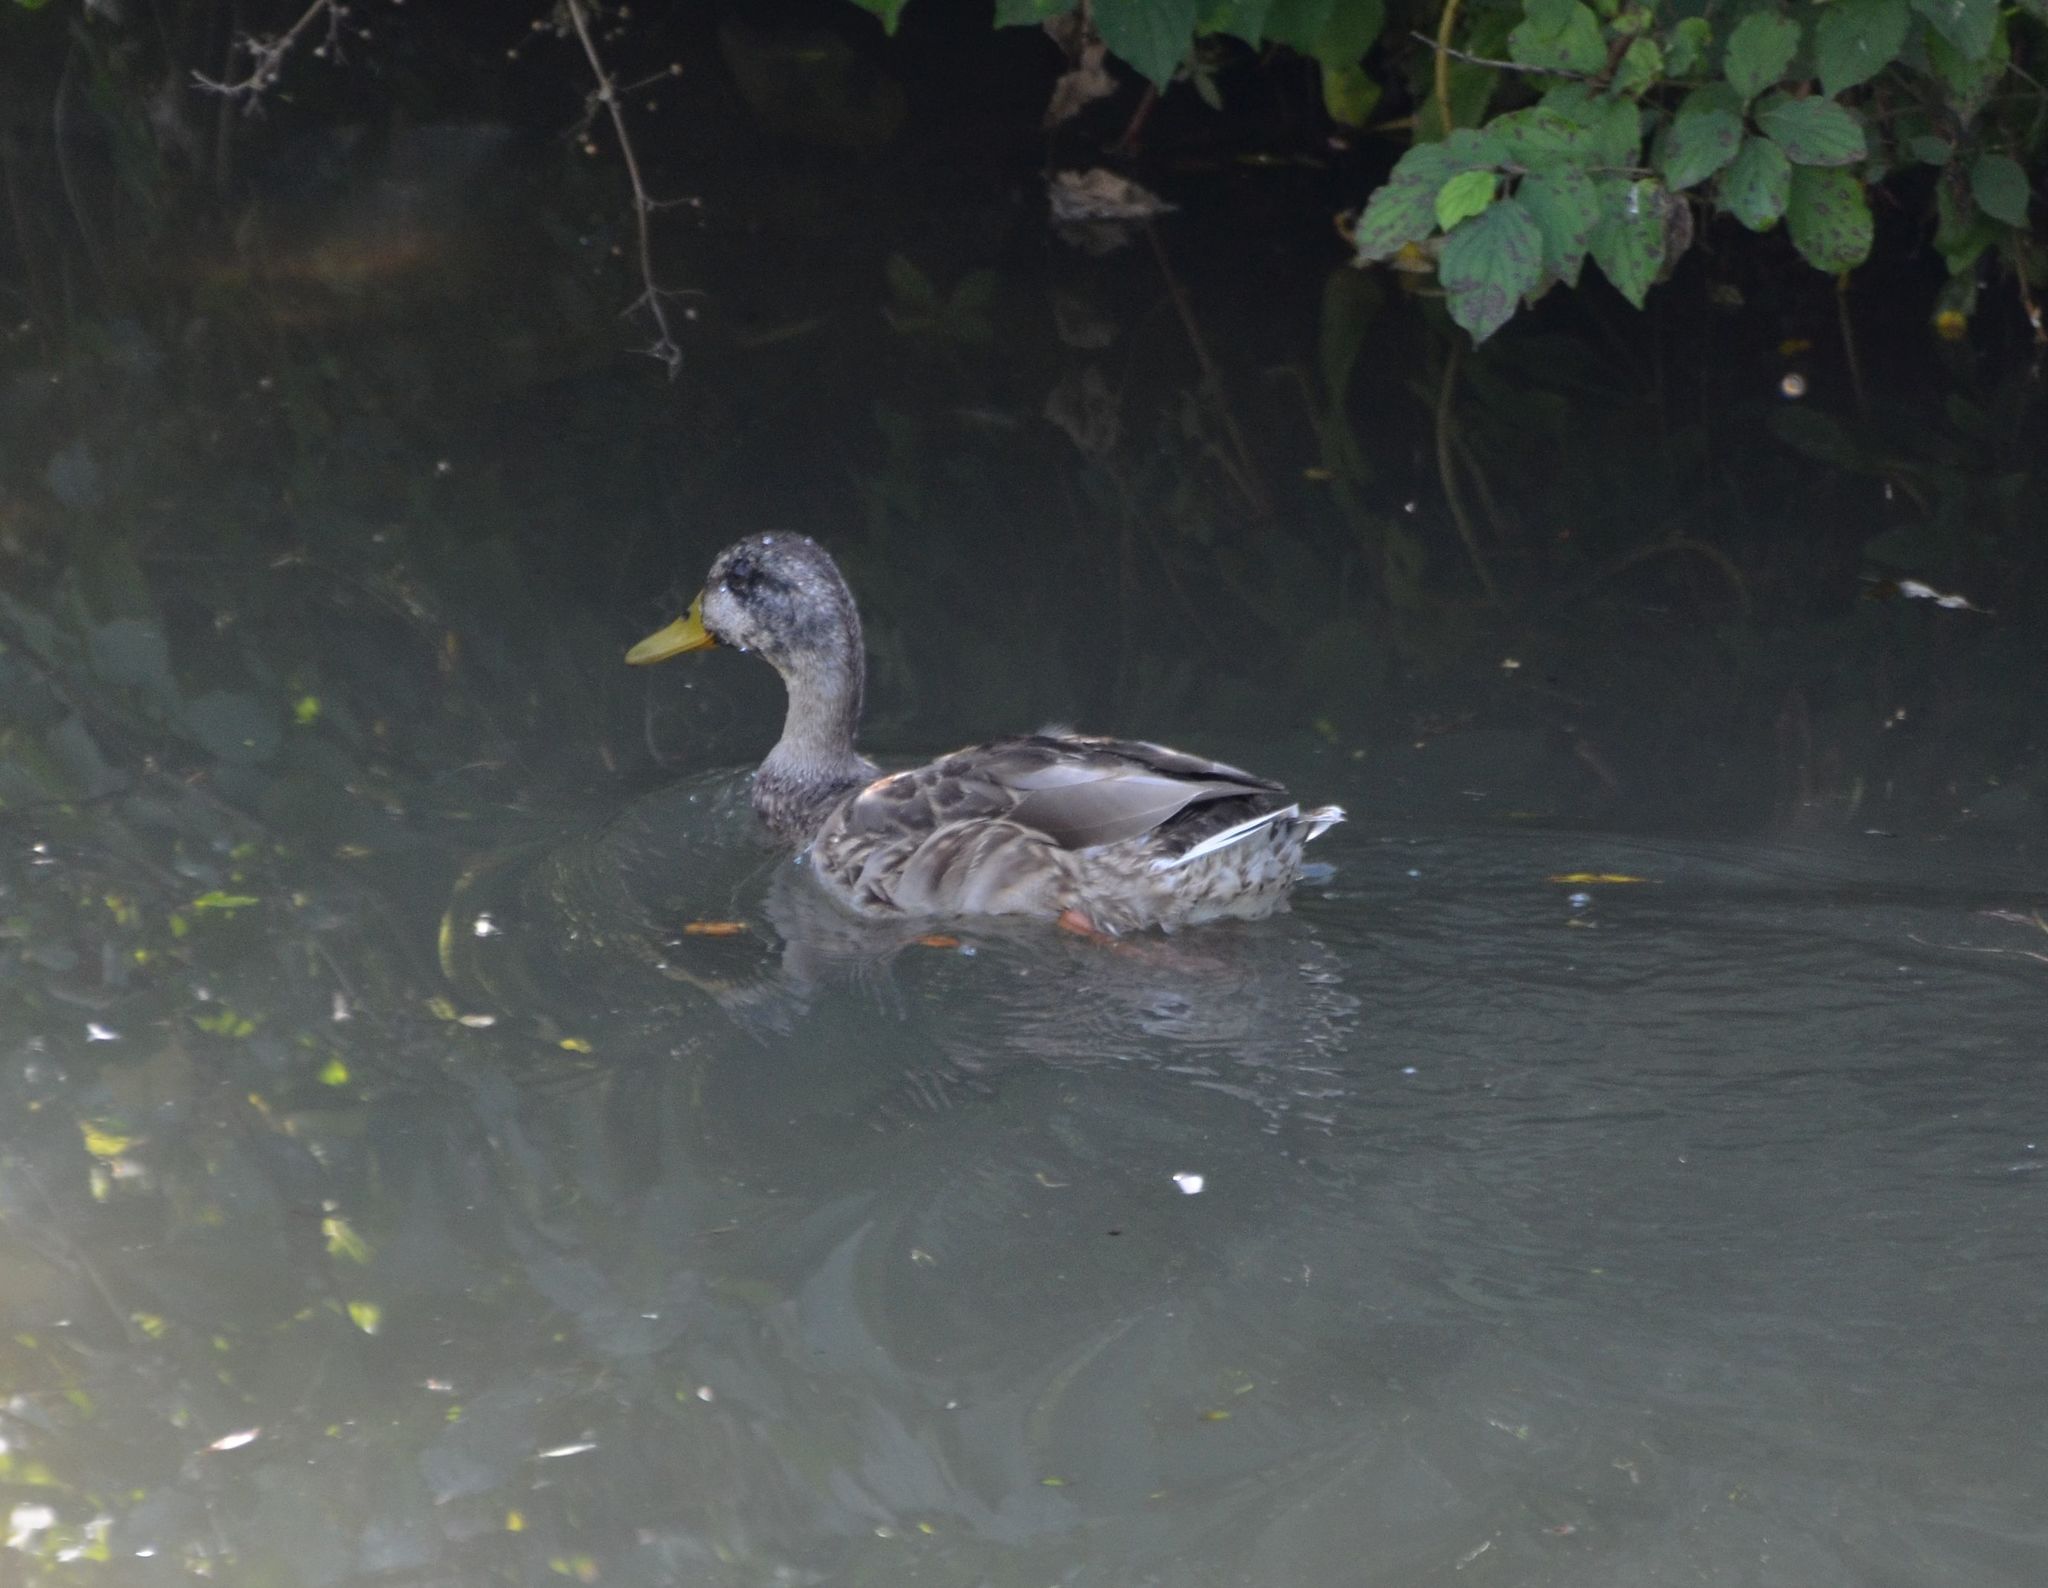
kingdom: Animalia
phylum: Chordata
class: Aves
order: Anseriformes
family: Anatidae
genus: Anas
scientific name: Anas platyrhynchos
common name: Mallard
